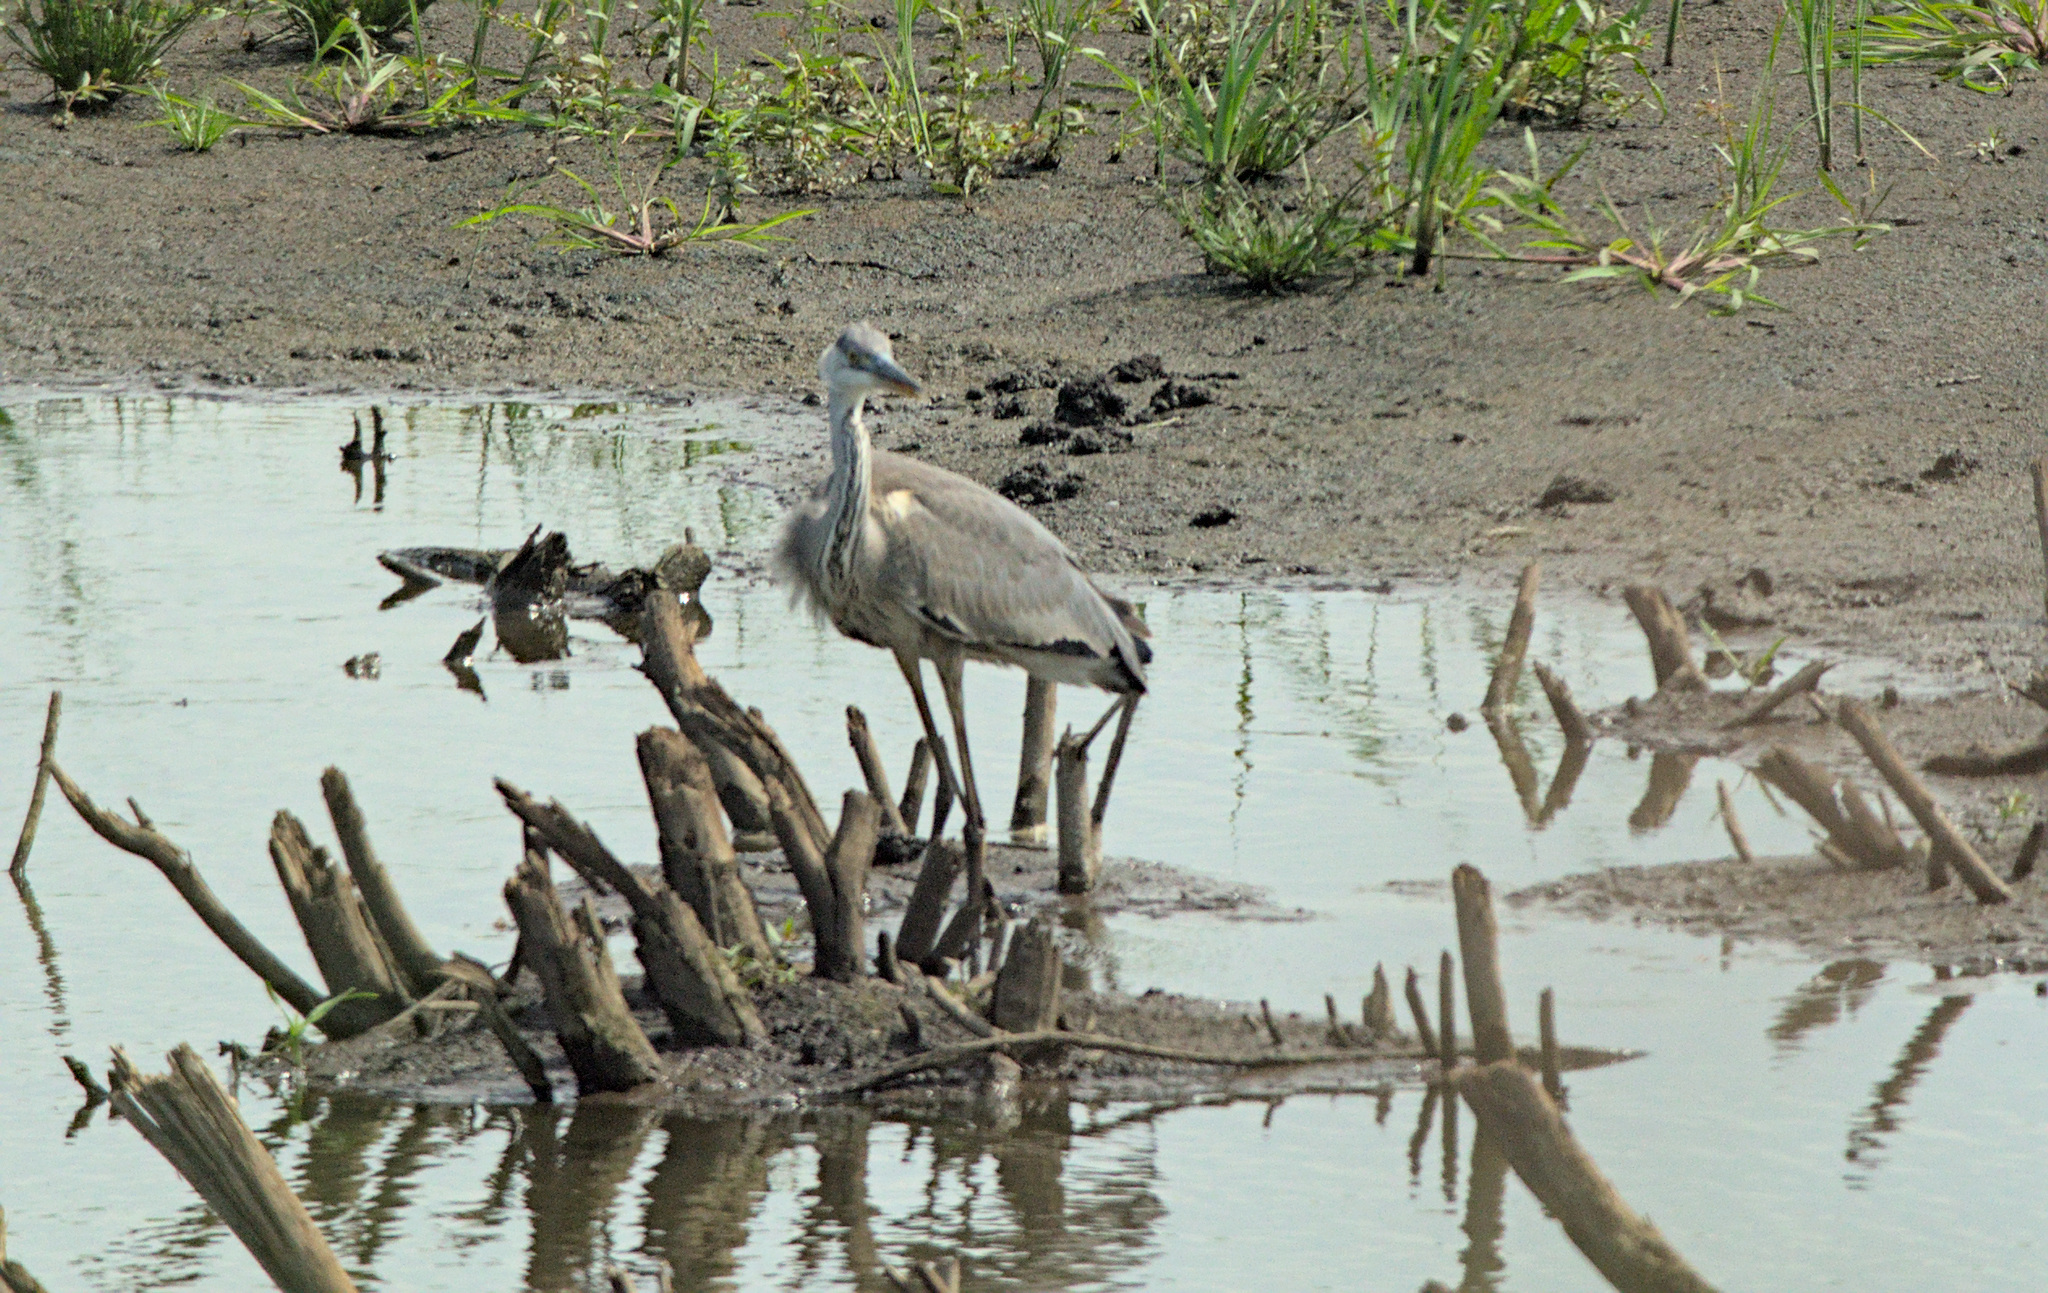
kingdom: Animalia
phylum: Chordata
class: Aves
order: Pelecaniformes
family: Ardeidae
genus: Ardea
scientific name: Ardea cinerea
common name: Grey heron
